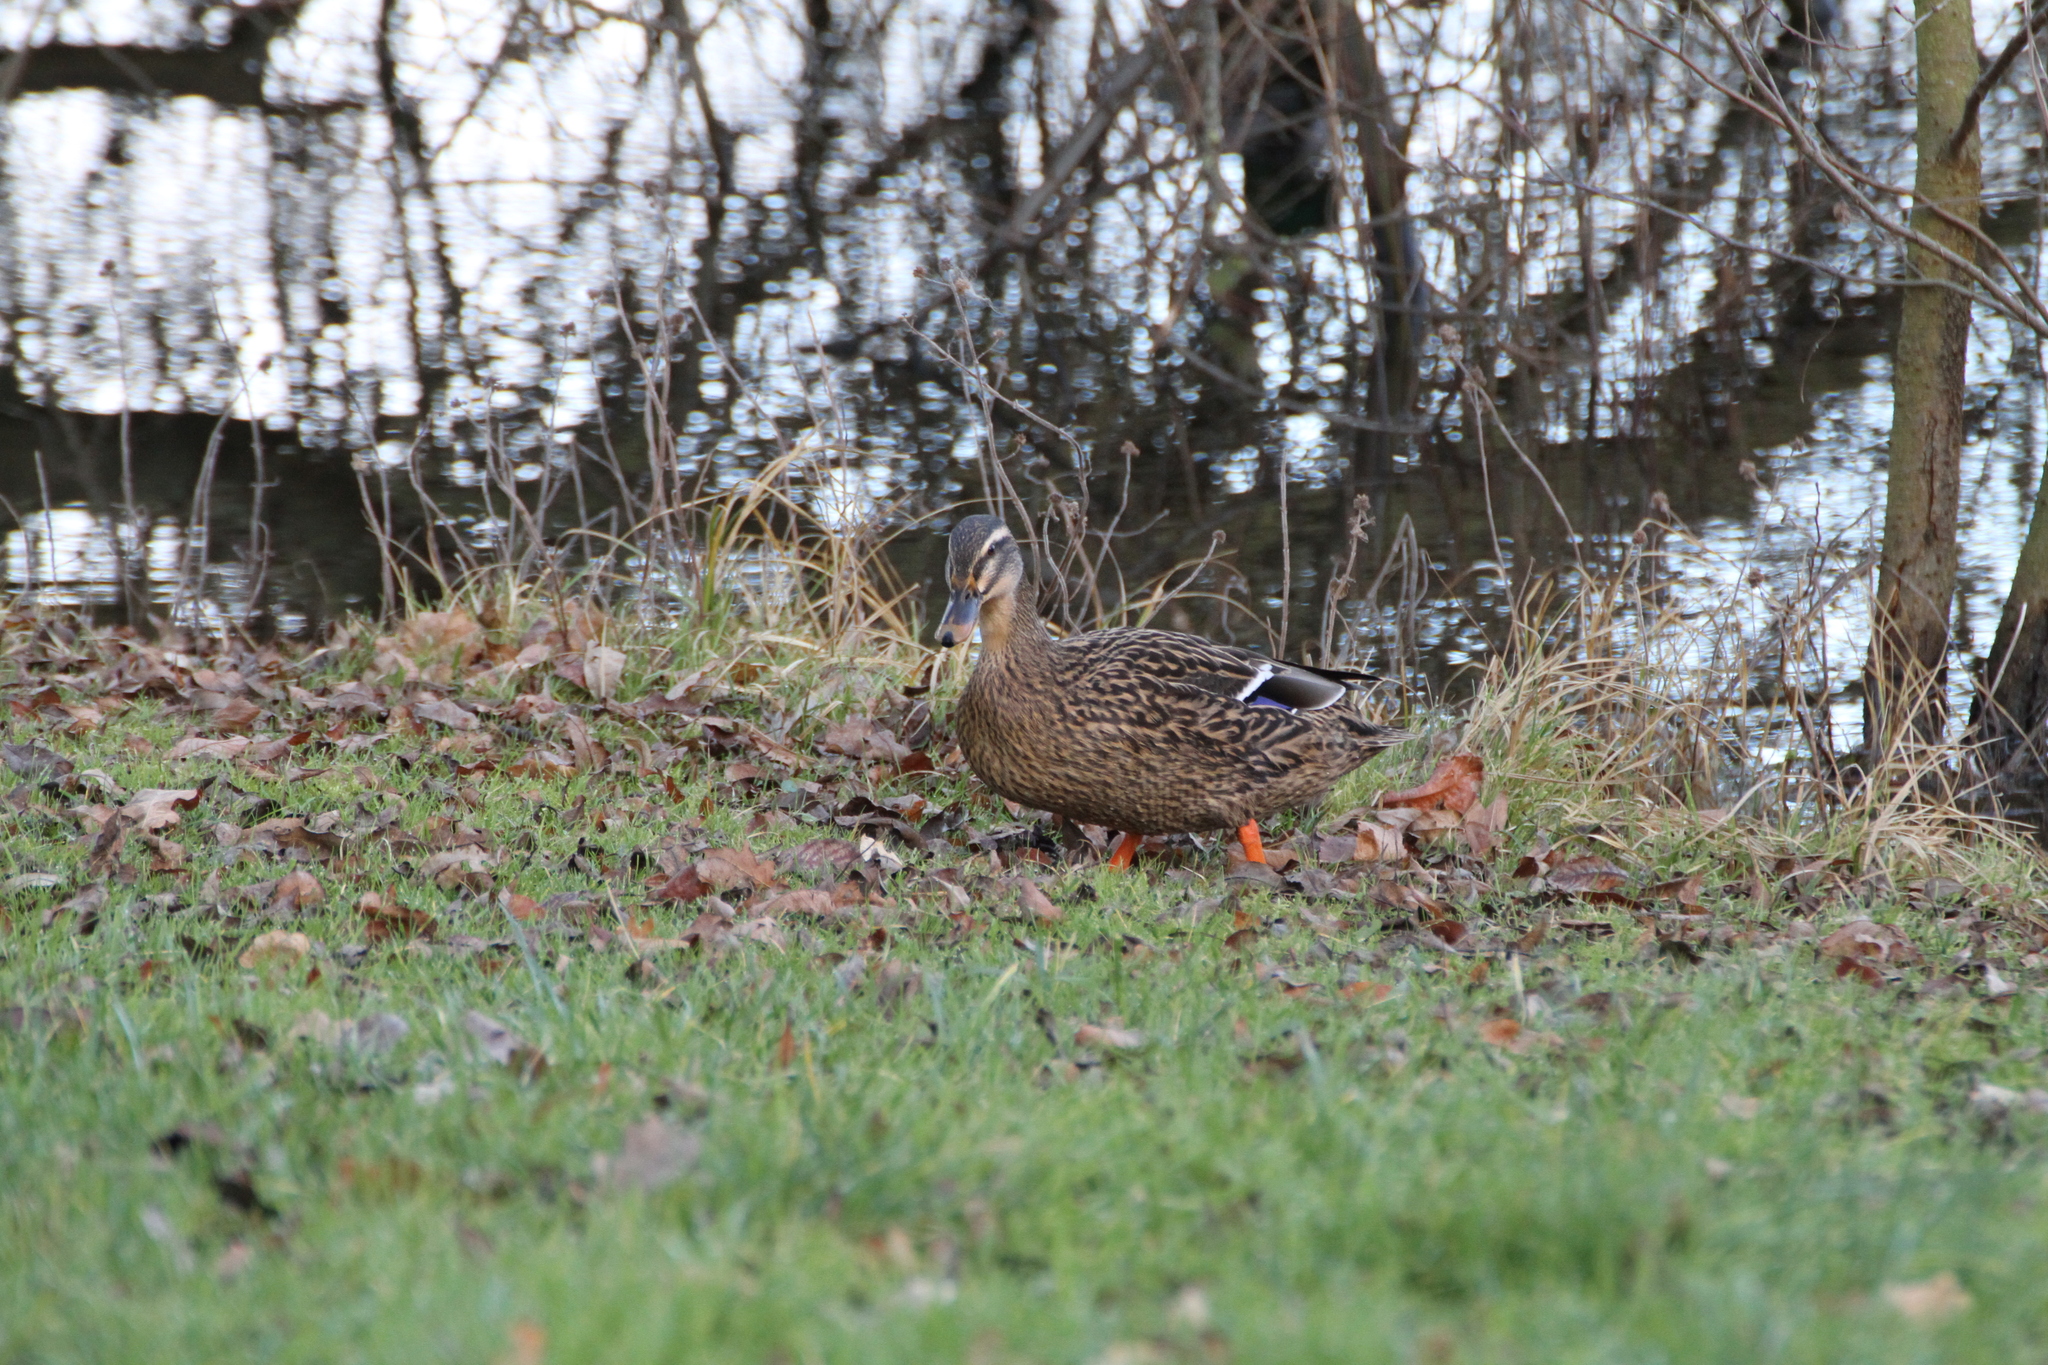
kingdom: Animalia
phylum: Chordata
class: Aves
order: Anseriformes
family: Anatidae
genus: Anas
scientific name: Anas platyrhynchos
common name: Mallard
